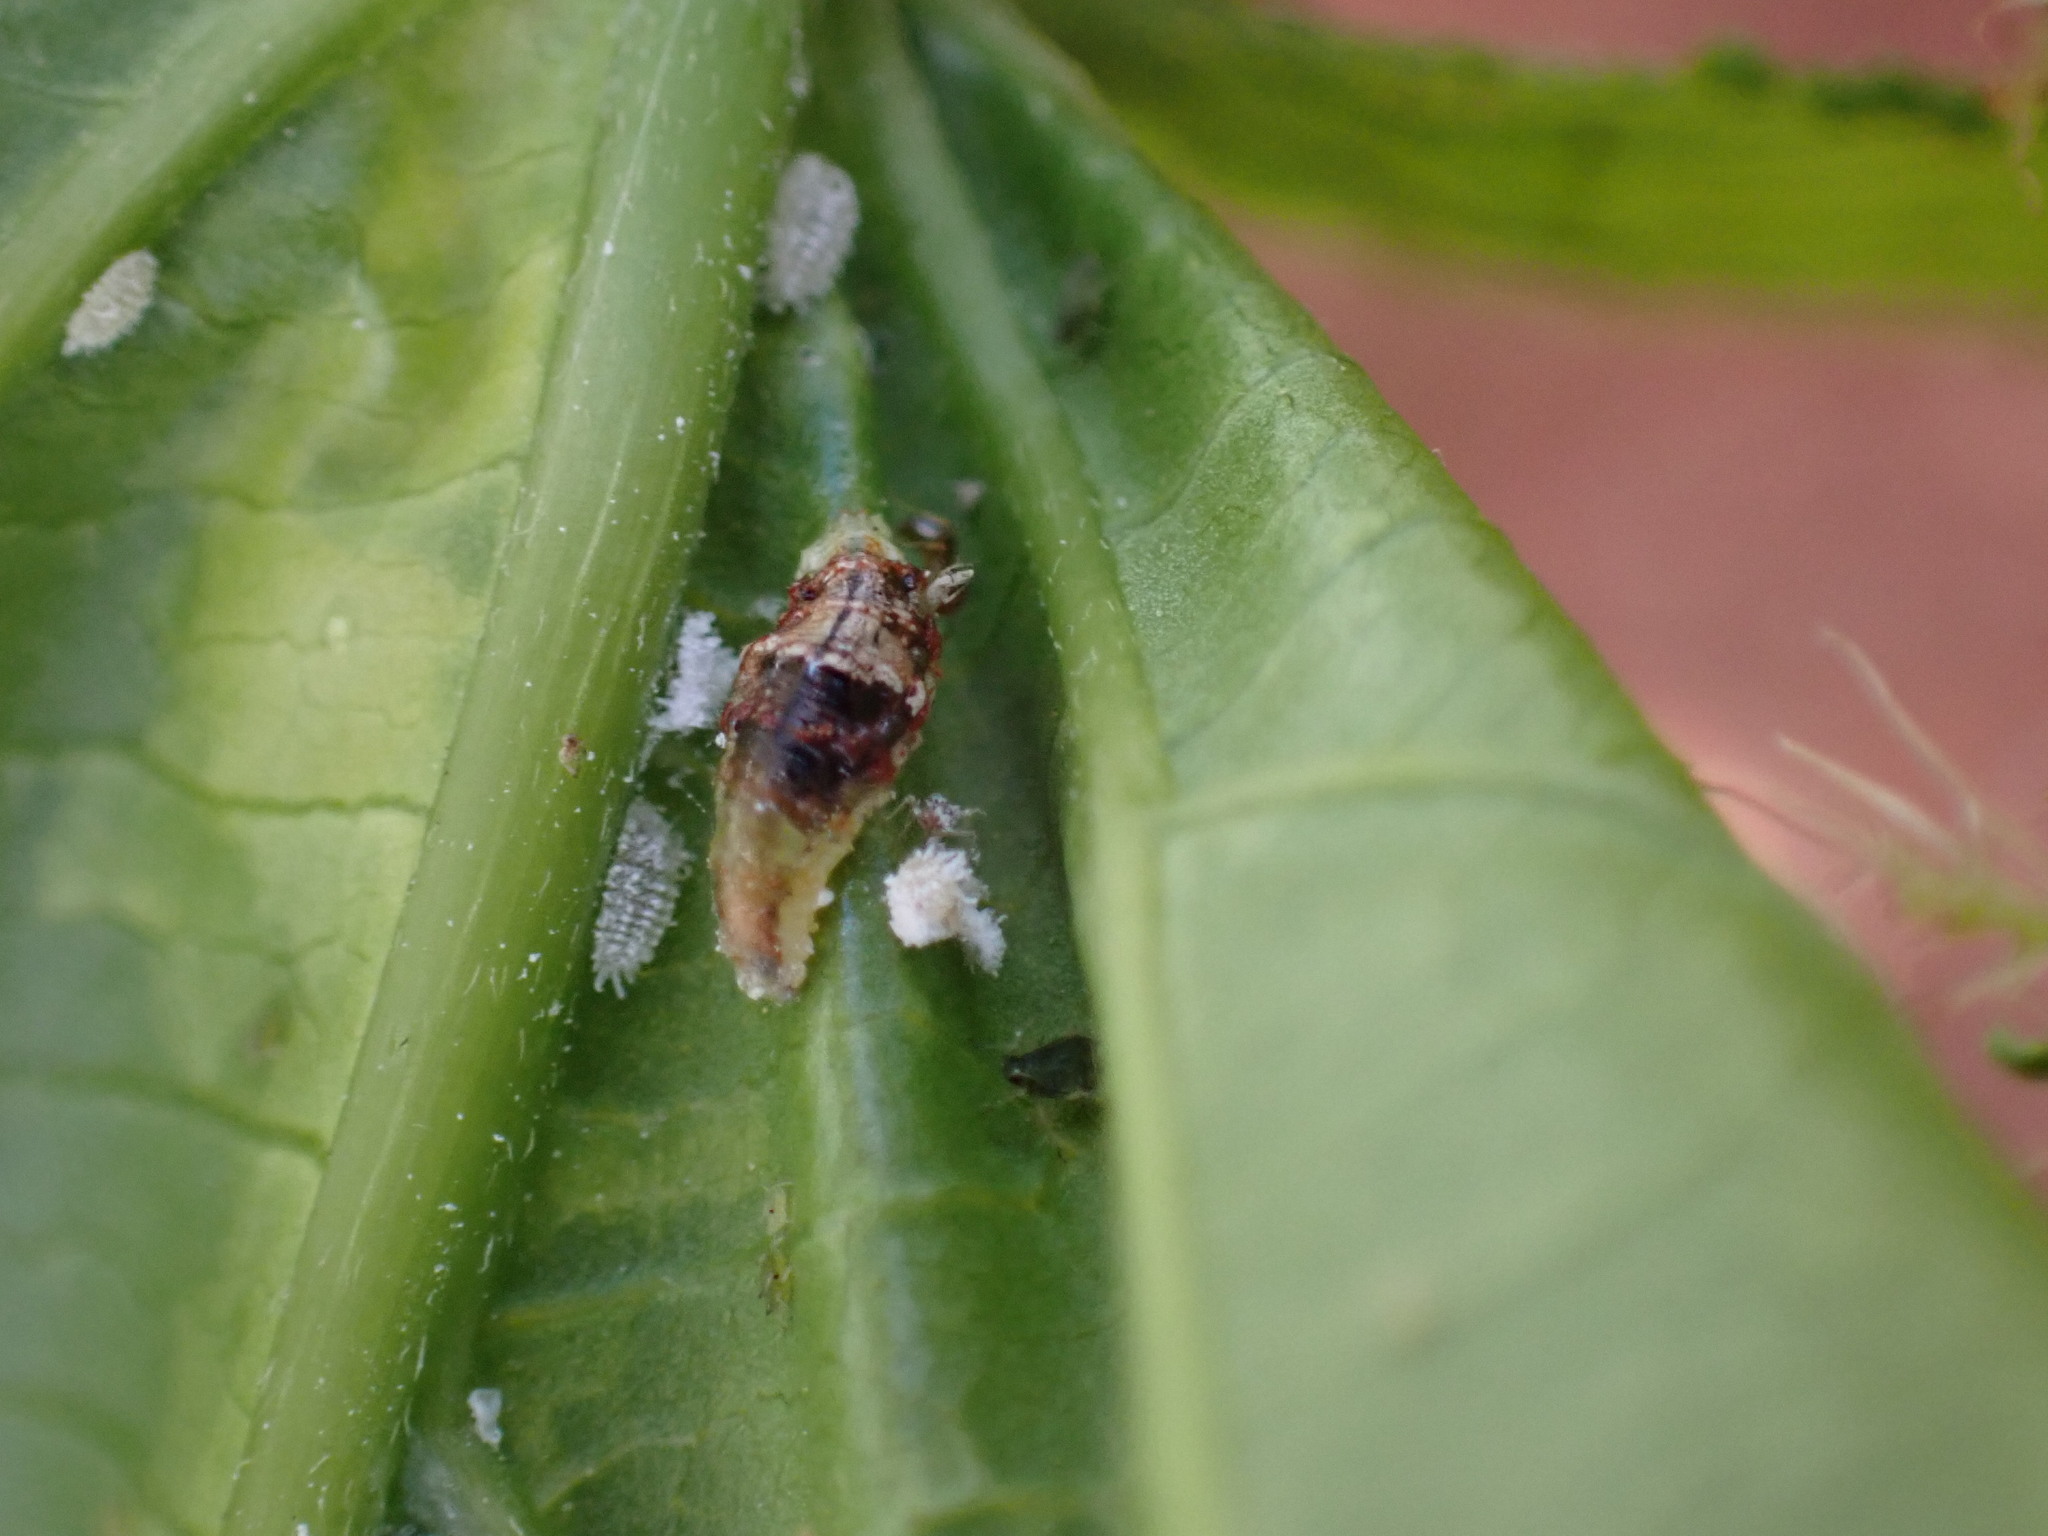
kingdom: Animalia
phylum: Arthropoda
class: Insecta
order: Diptera
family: Syrphidae
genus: Ocyptamus
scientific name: Ocyptamus fuscipennis
